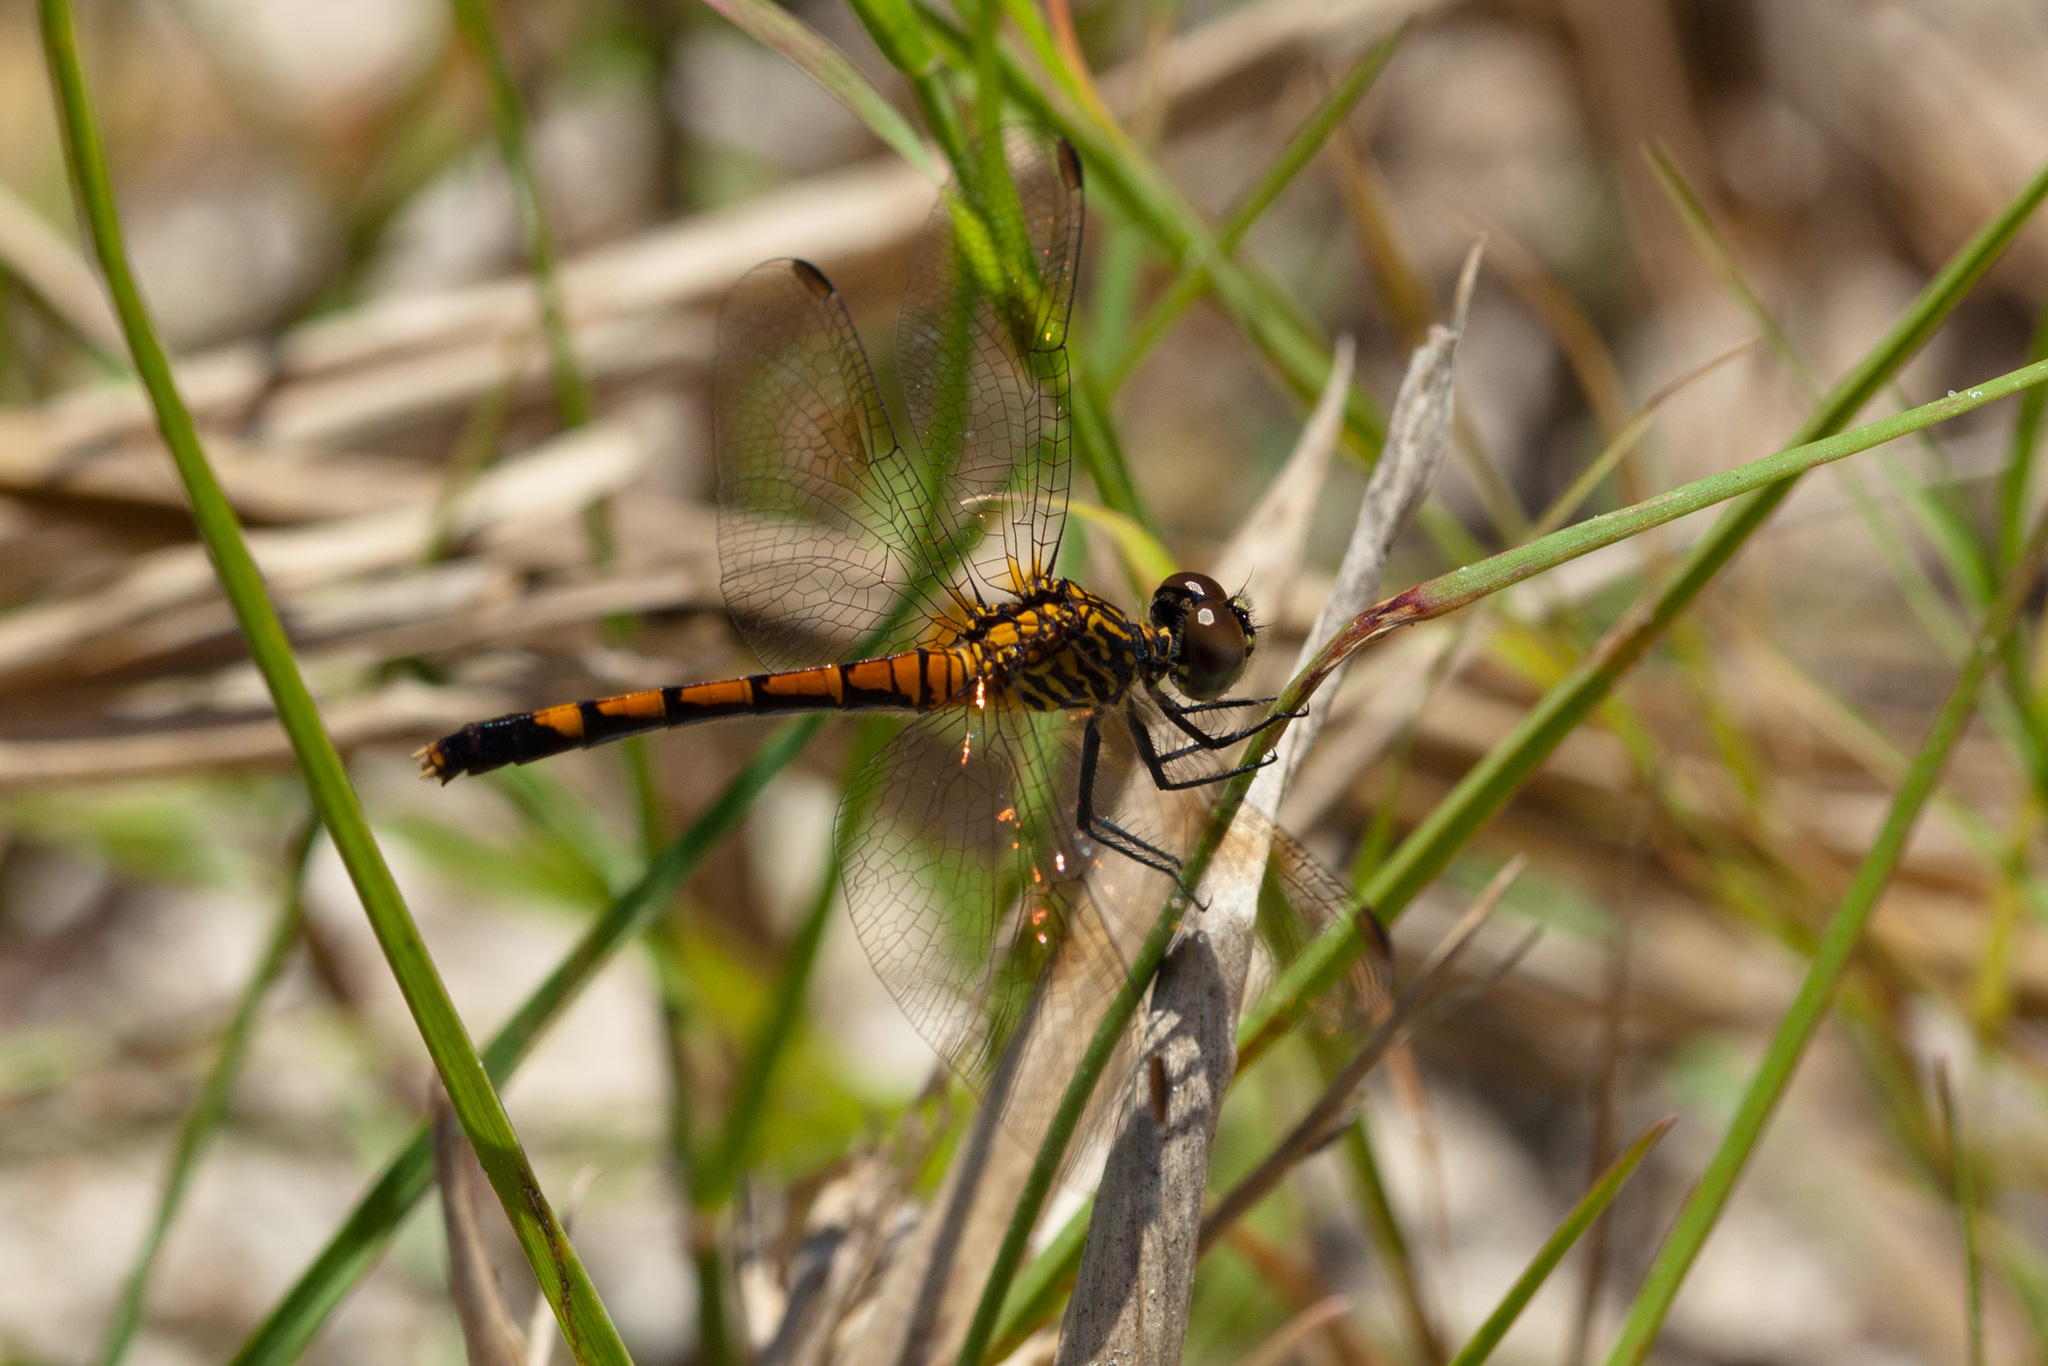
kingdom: Animalia
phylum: Arthropoda
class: Insecta
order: Odonata
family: Libellulidae
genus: Erythrodiplax
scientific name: Erythrodiplax berenice
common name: Seaside dragonlet
